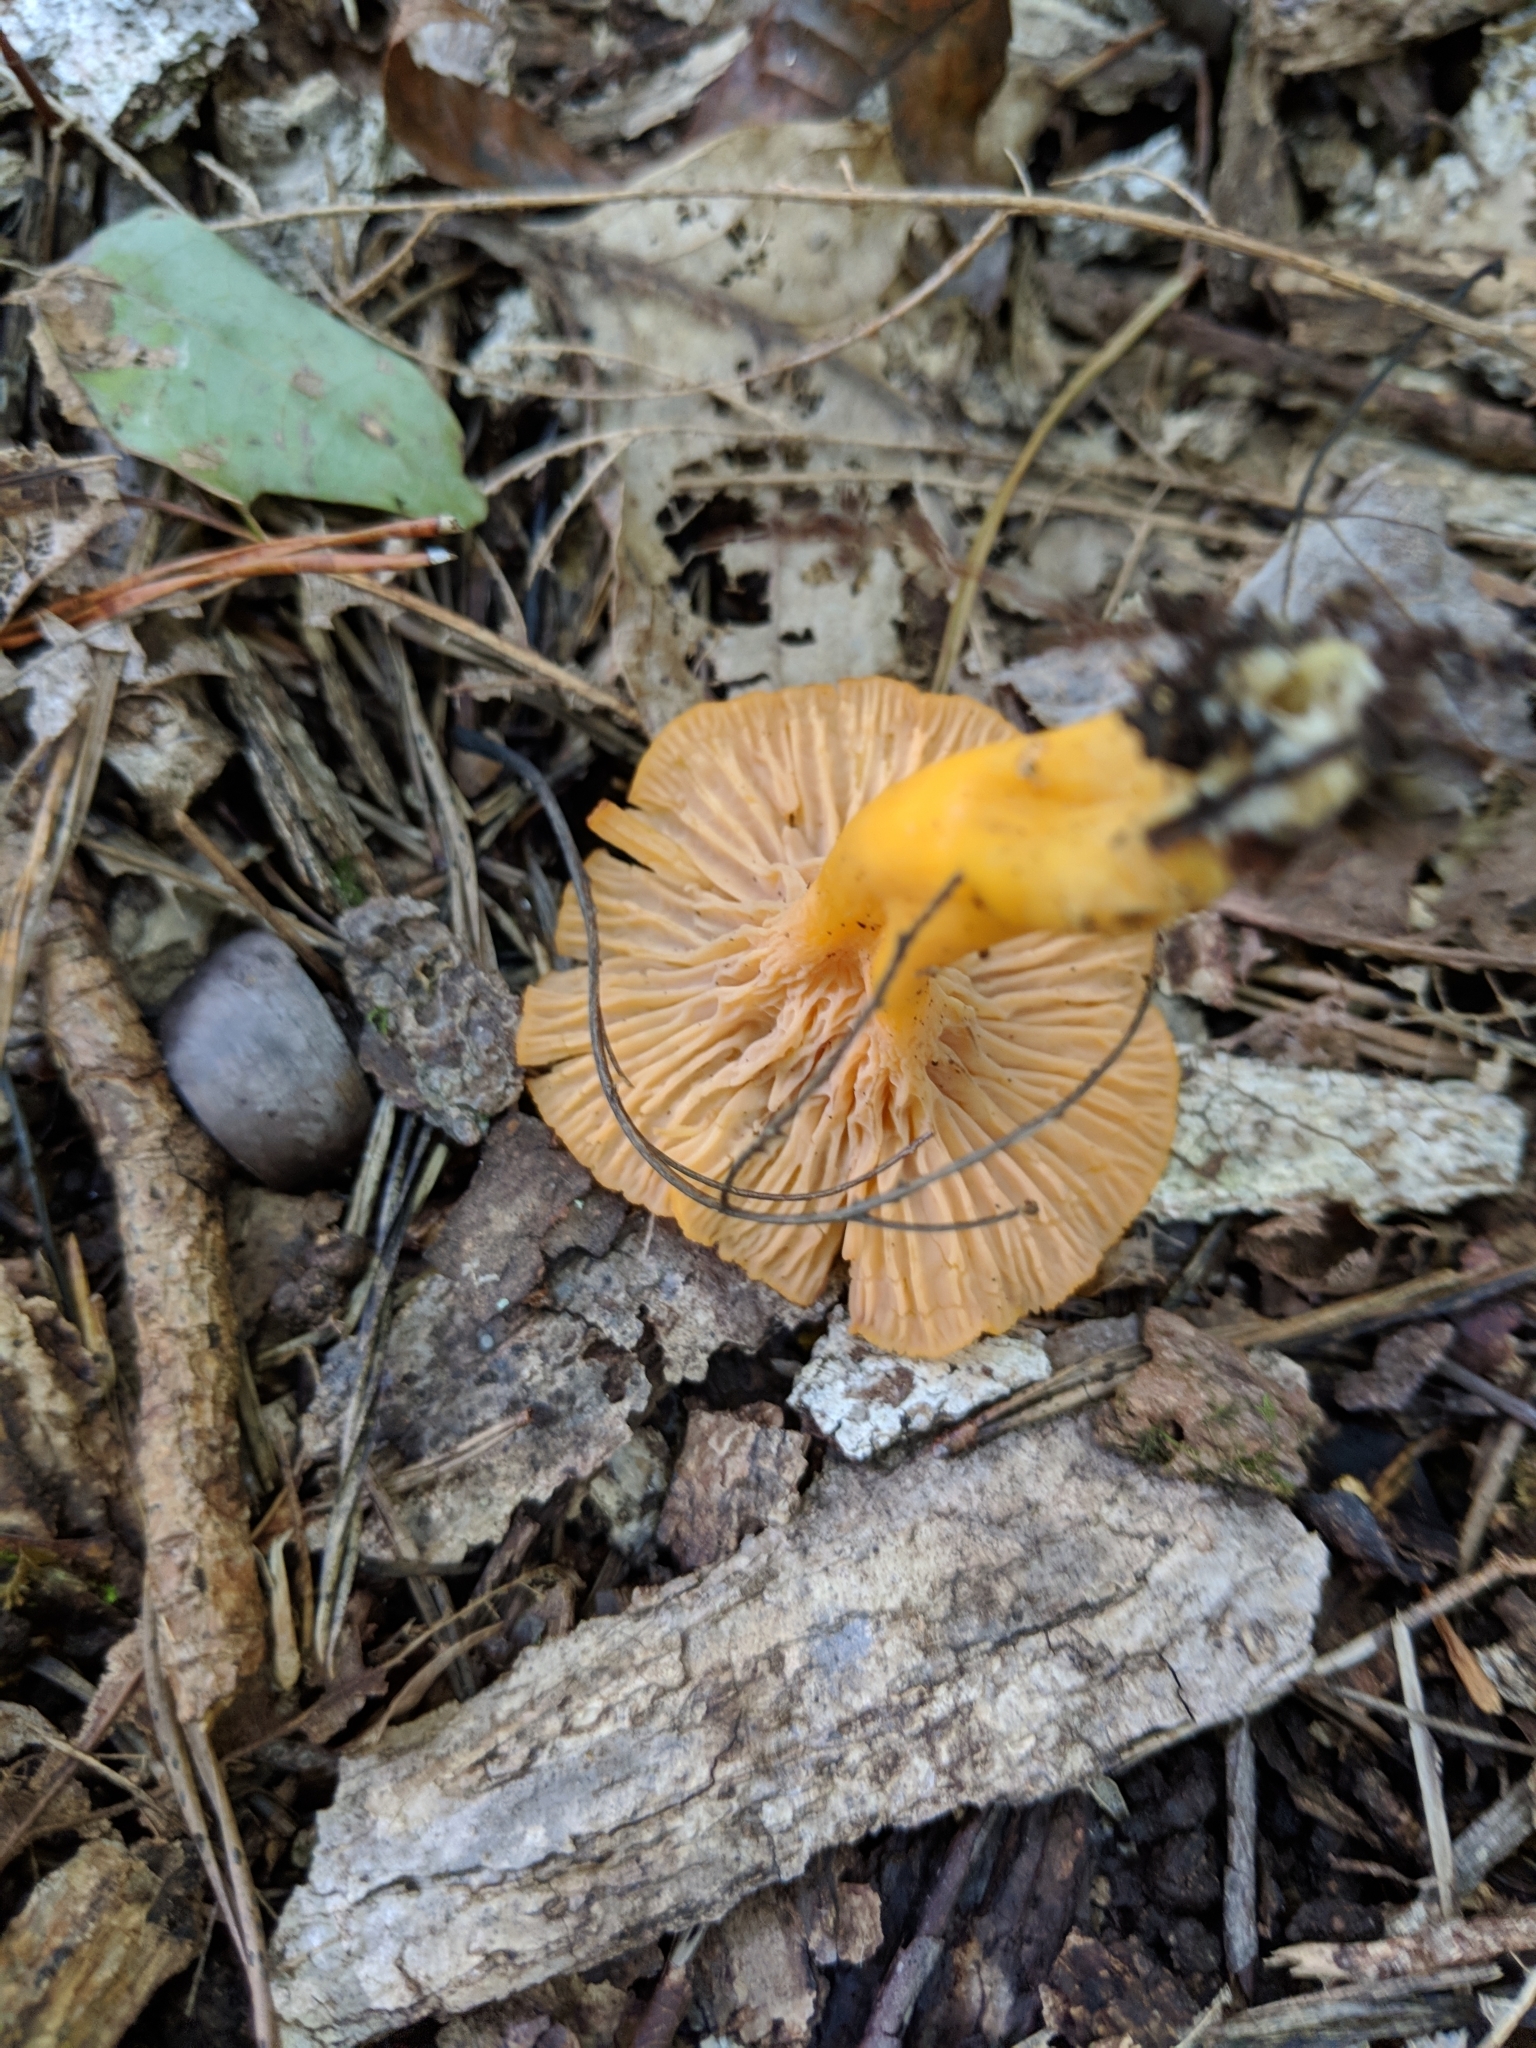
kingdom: Fungi
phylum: Basidiomycota
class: Agaricomycetes
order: Cantharellales
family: Hydnaceae
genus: Craterellus
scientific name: Craterellus ignicolor
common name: Flame chanterelle
